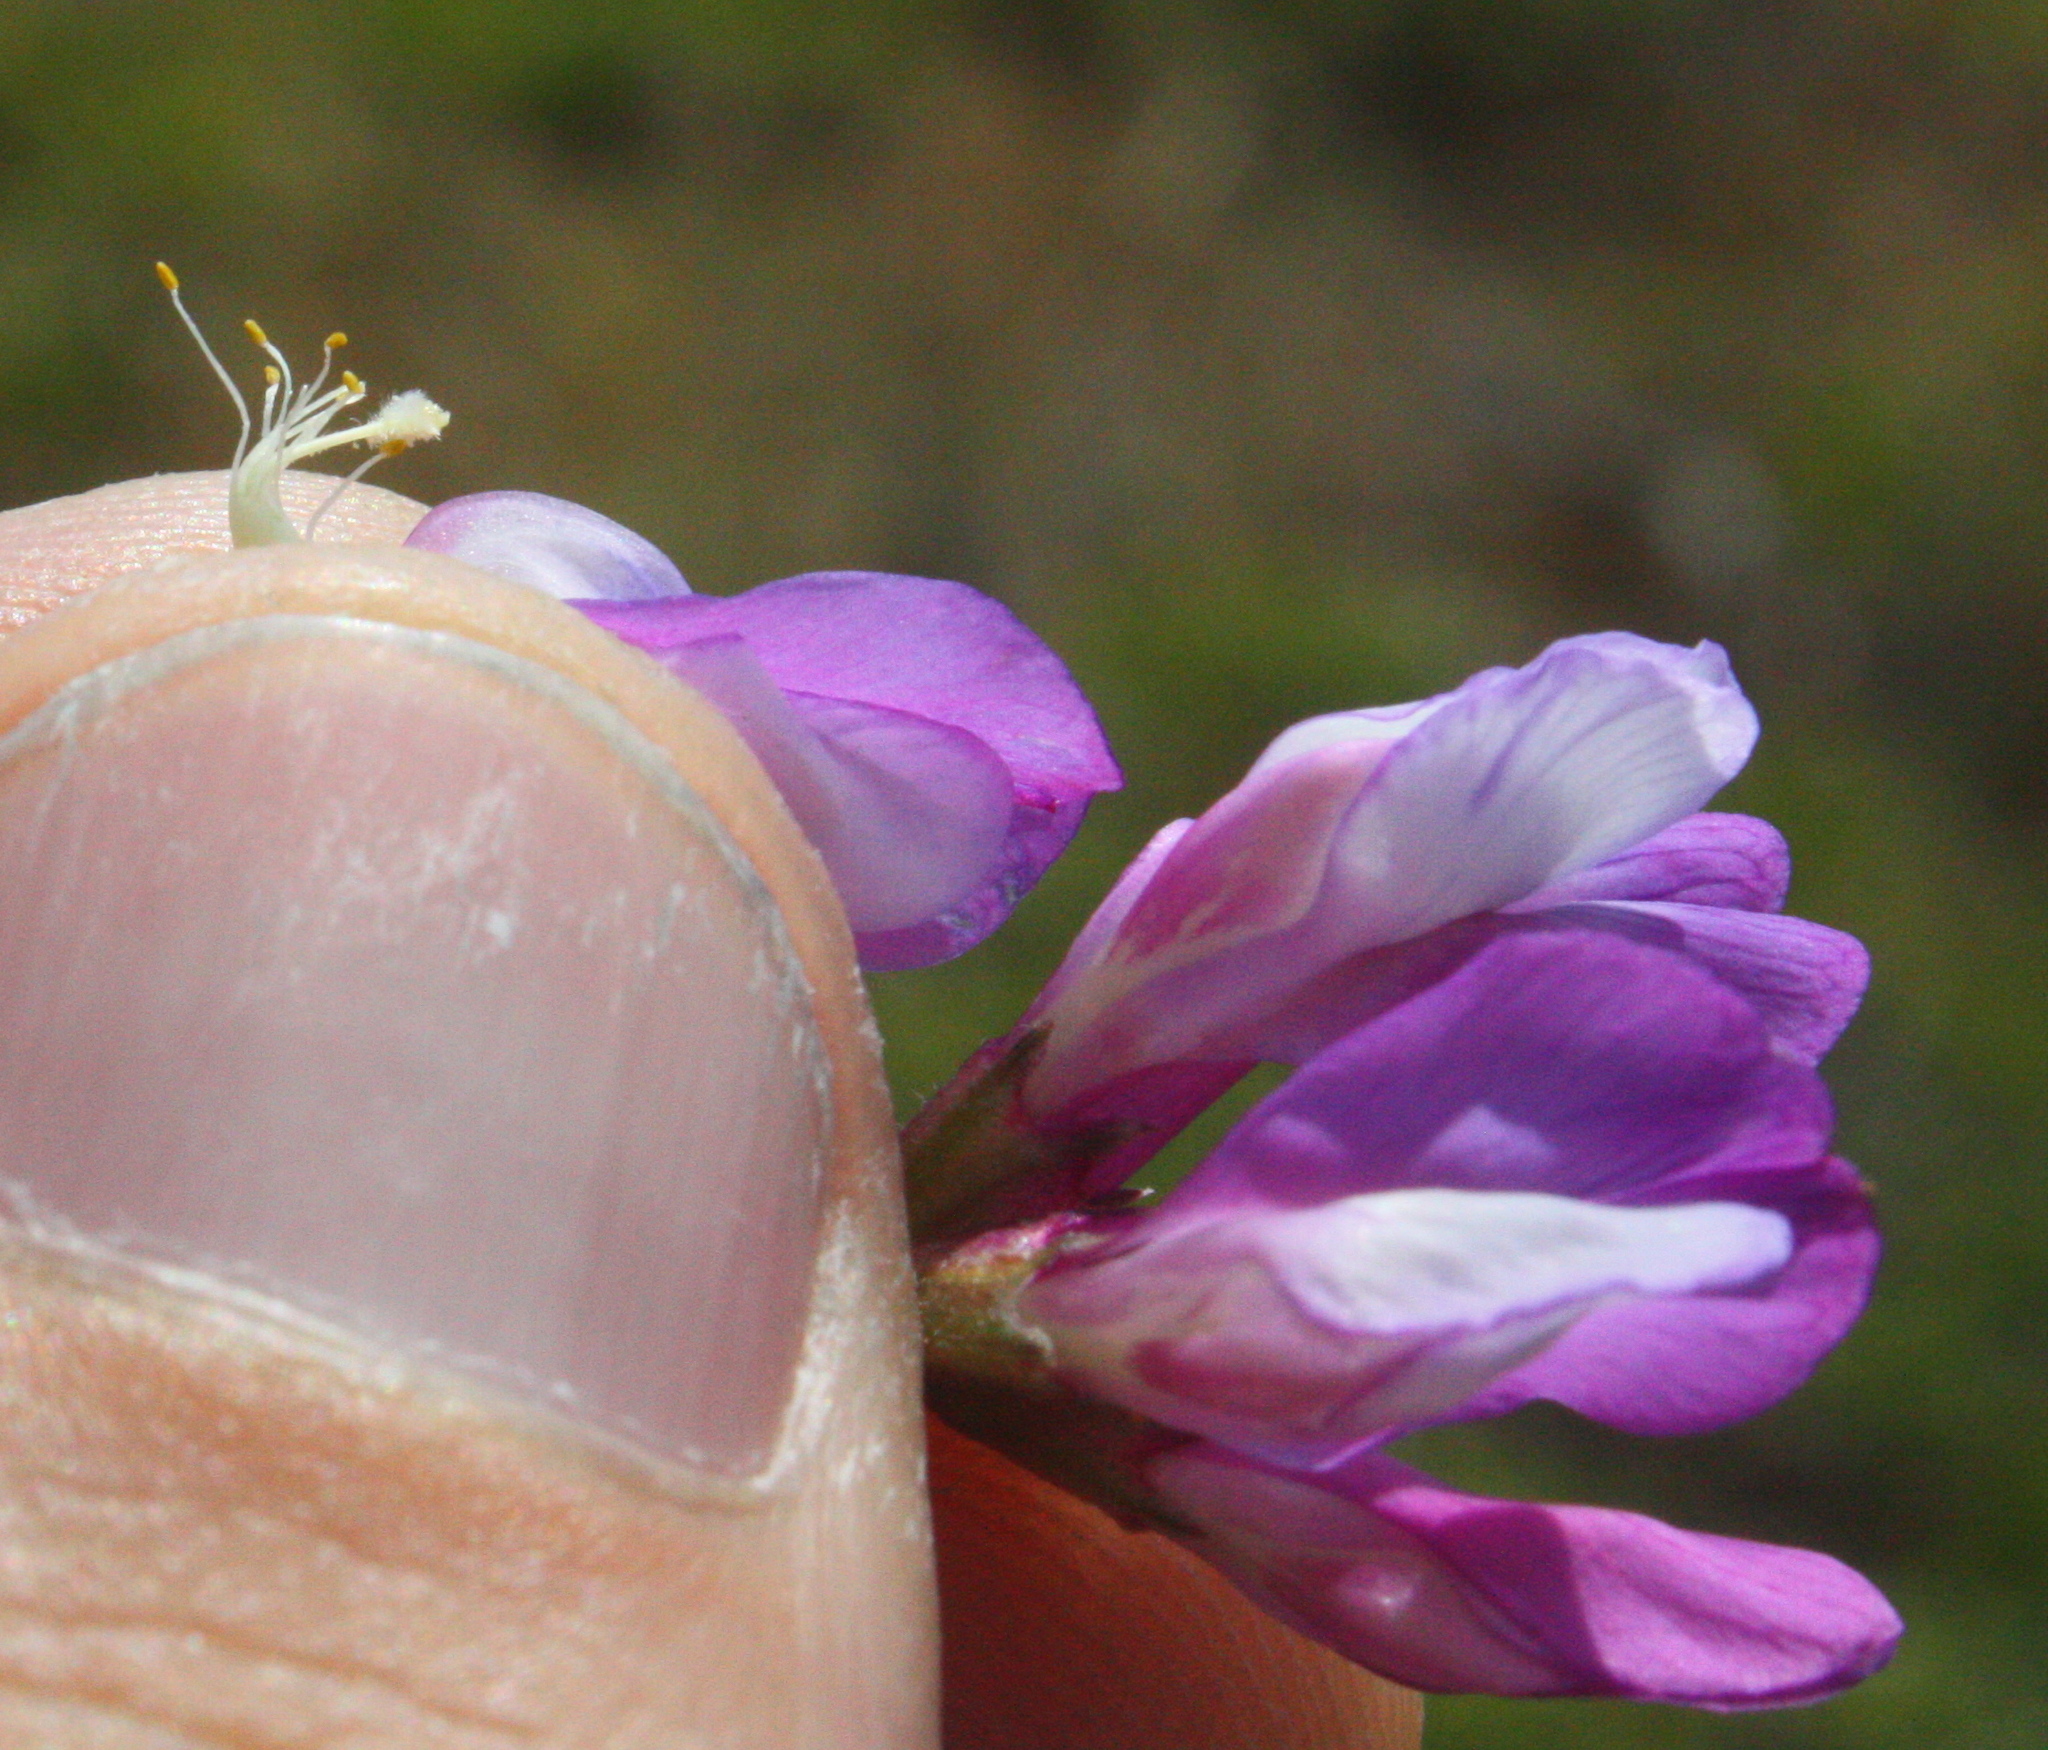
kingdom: Plantae
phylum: Tracheophyta
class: Magnoliopsida
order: Fabales
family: Fabaceae
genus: Vicia
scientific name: Vicia americana
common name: American vetch
